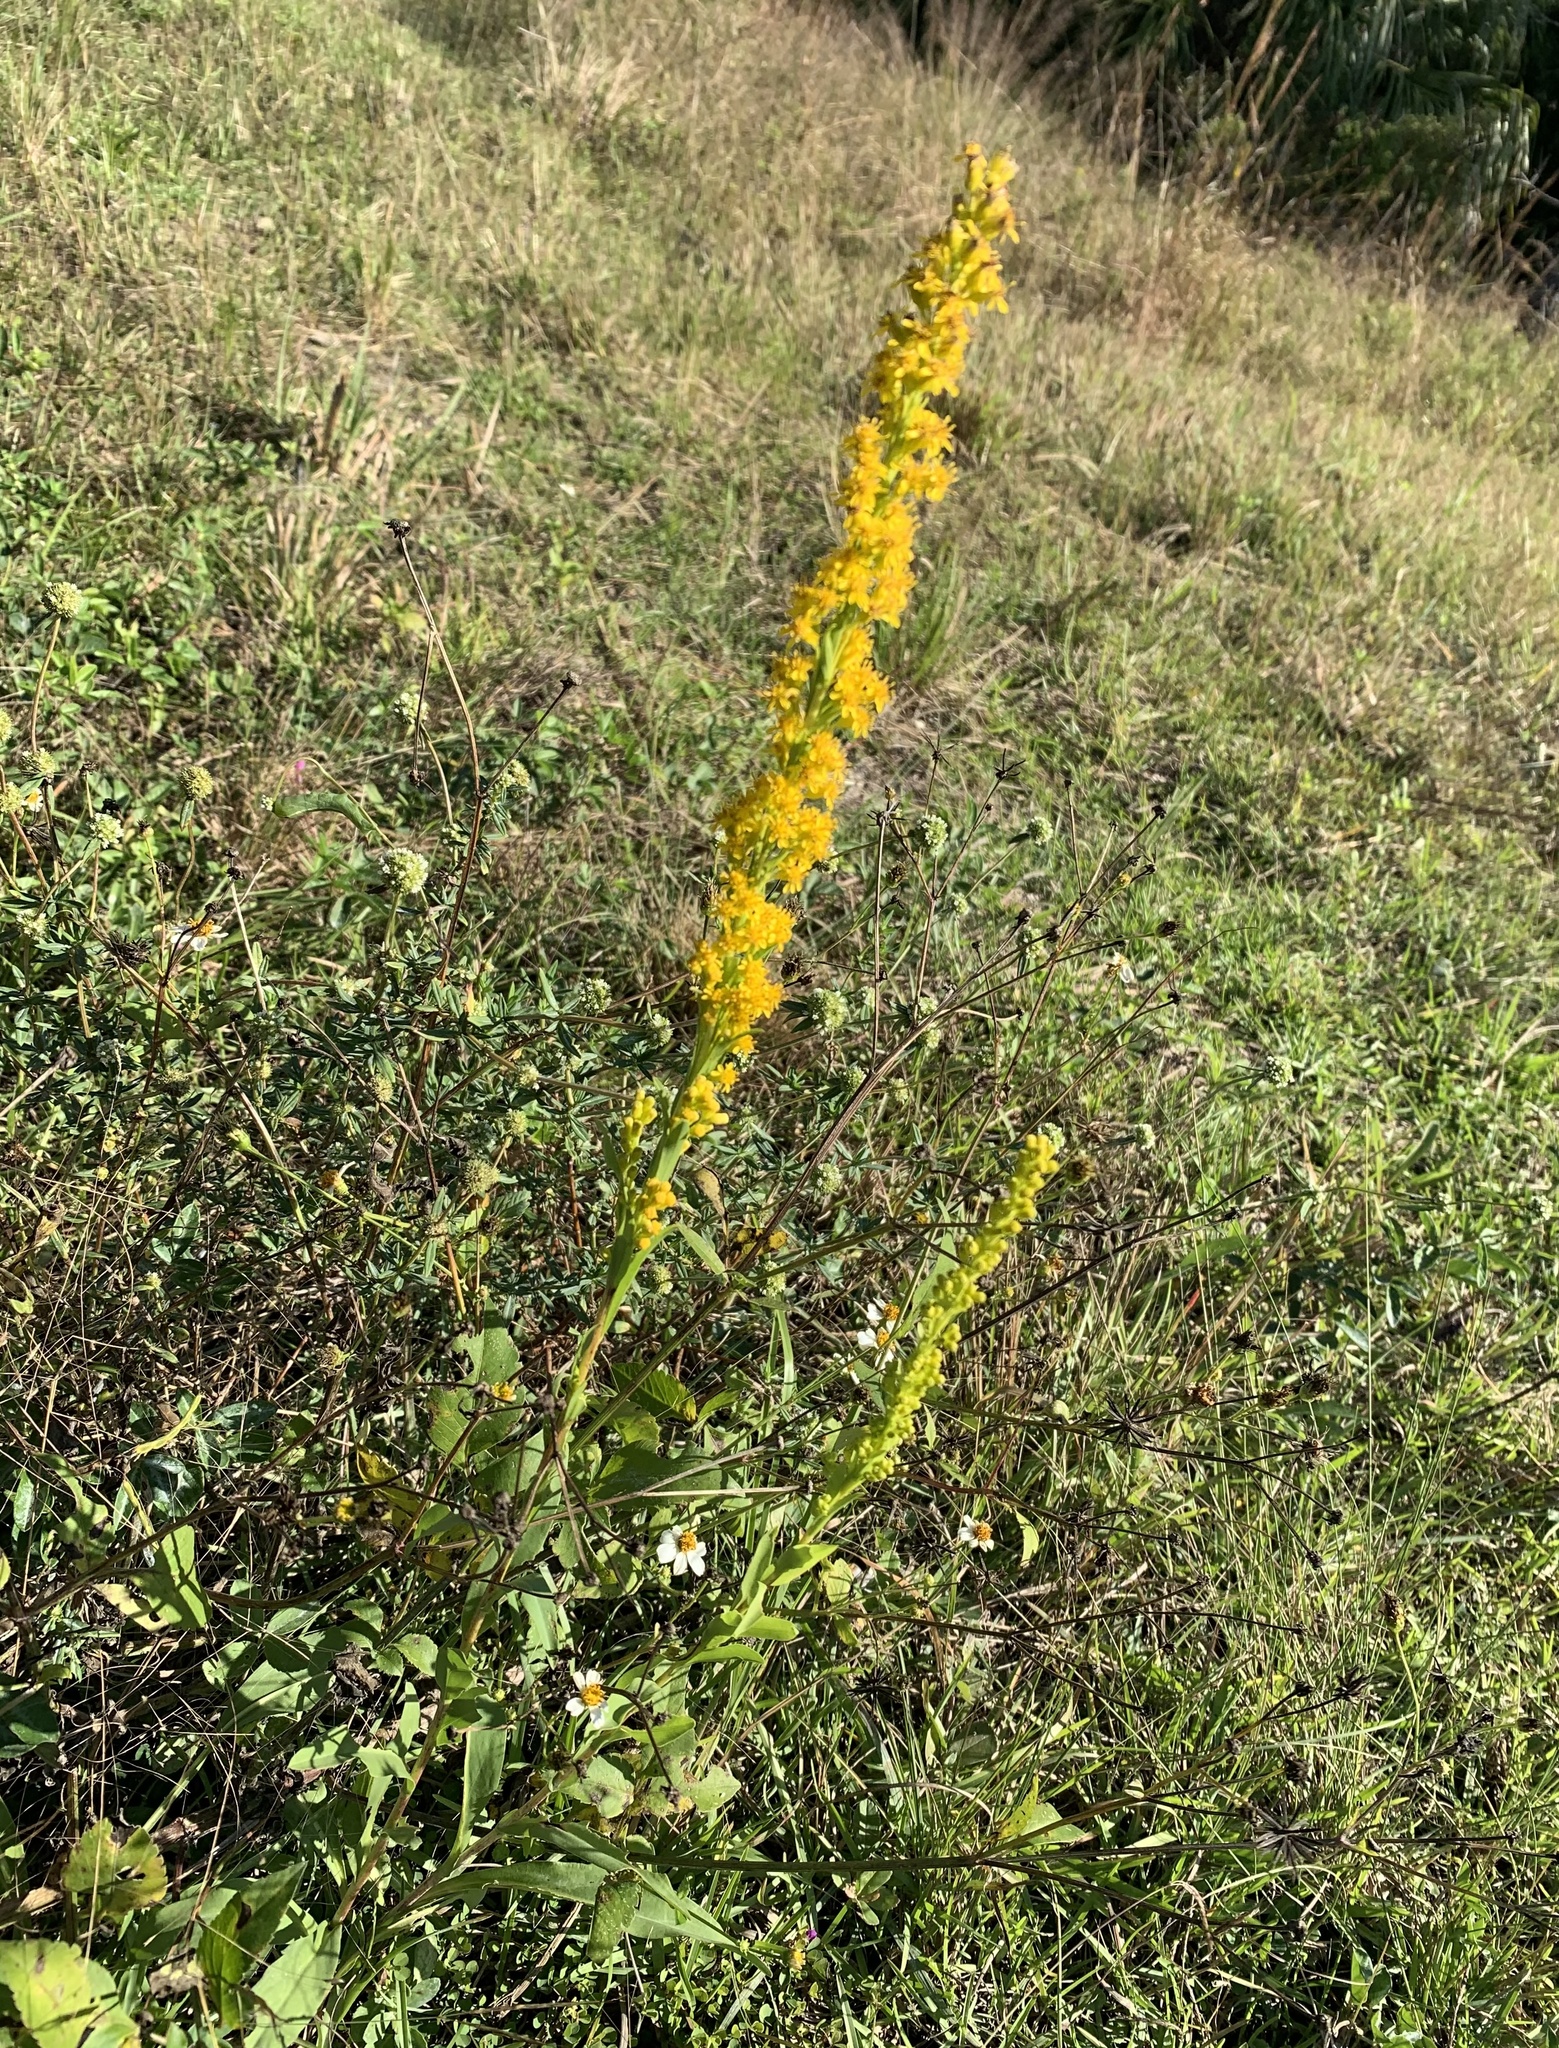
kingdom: Plantae
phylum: Tracheophyta
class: Magnoliopsida
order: Asterales
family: Asteraceae
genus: Solidago
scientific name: Solidago mexicana
